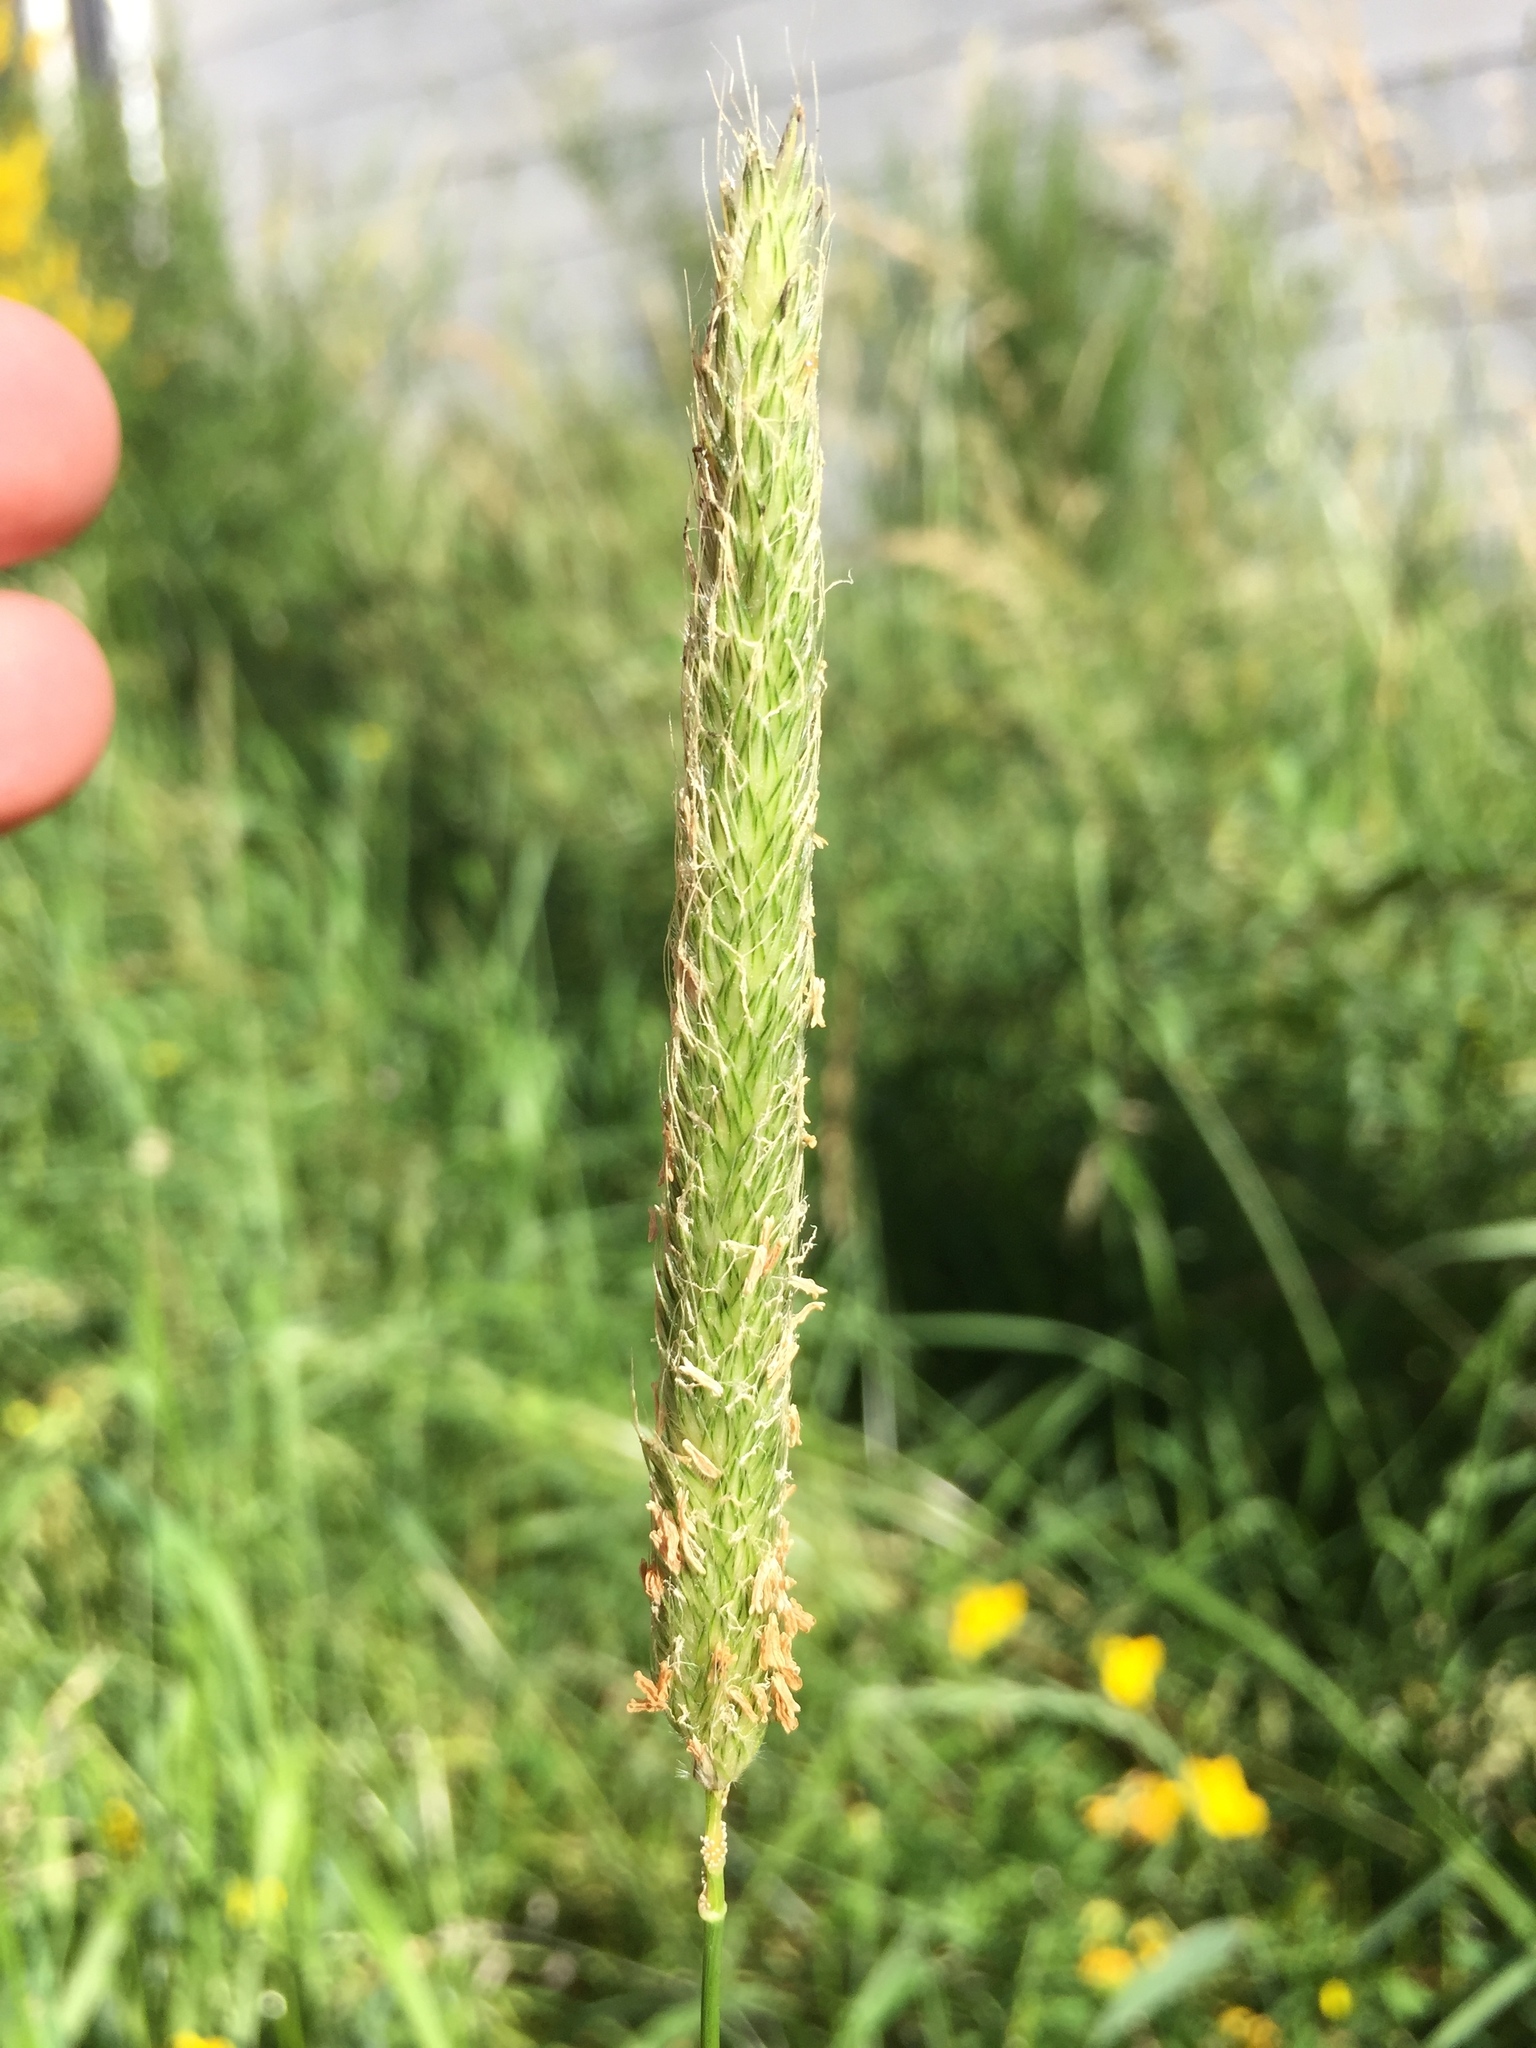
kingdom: Plantae
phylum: Tracheophyta
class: Liliopsida
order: Poales
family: Poaceae
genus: Alopecurus
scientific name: Alopecurus pratensis
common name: Meadow foxtail
